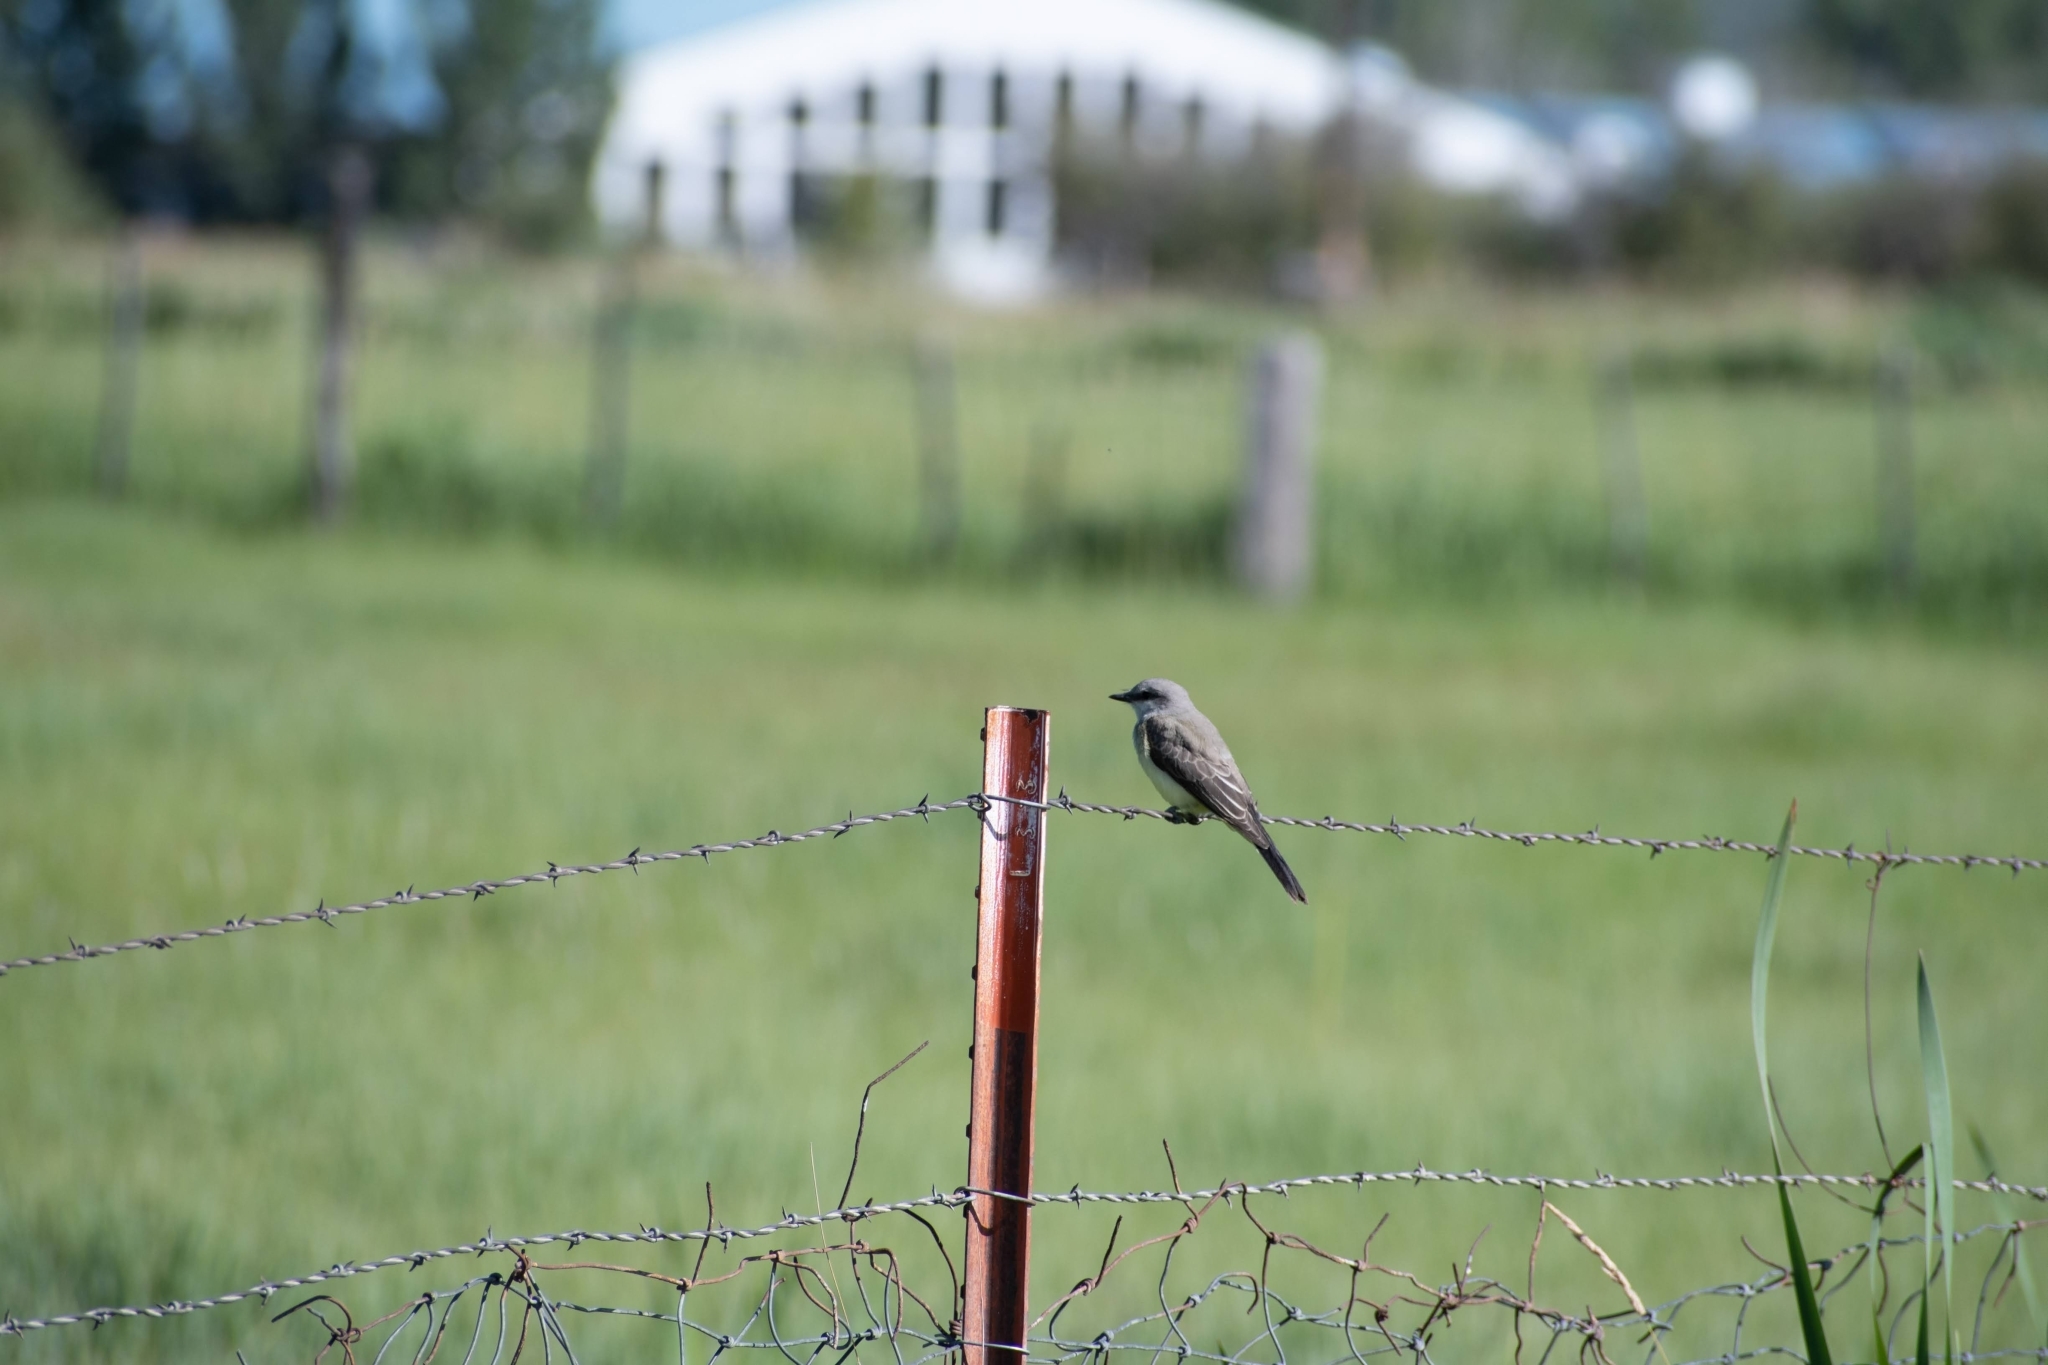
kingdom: Animalia
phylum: Chordata
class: Aves
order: Passeriformes
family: Tyrannidae
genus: Tyrannus
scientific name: Tyrannus verticalis
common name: Western kingbird
